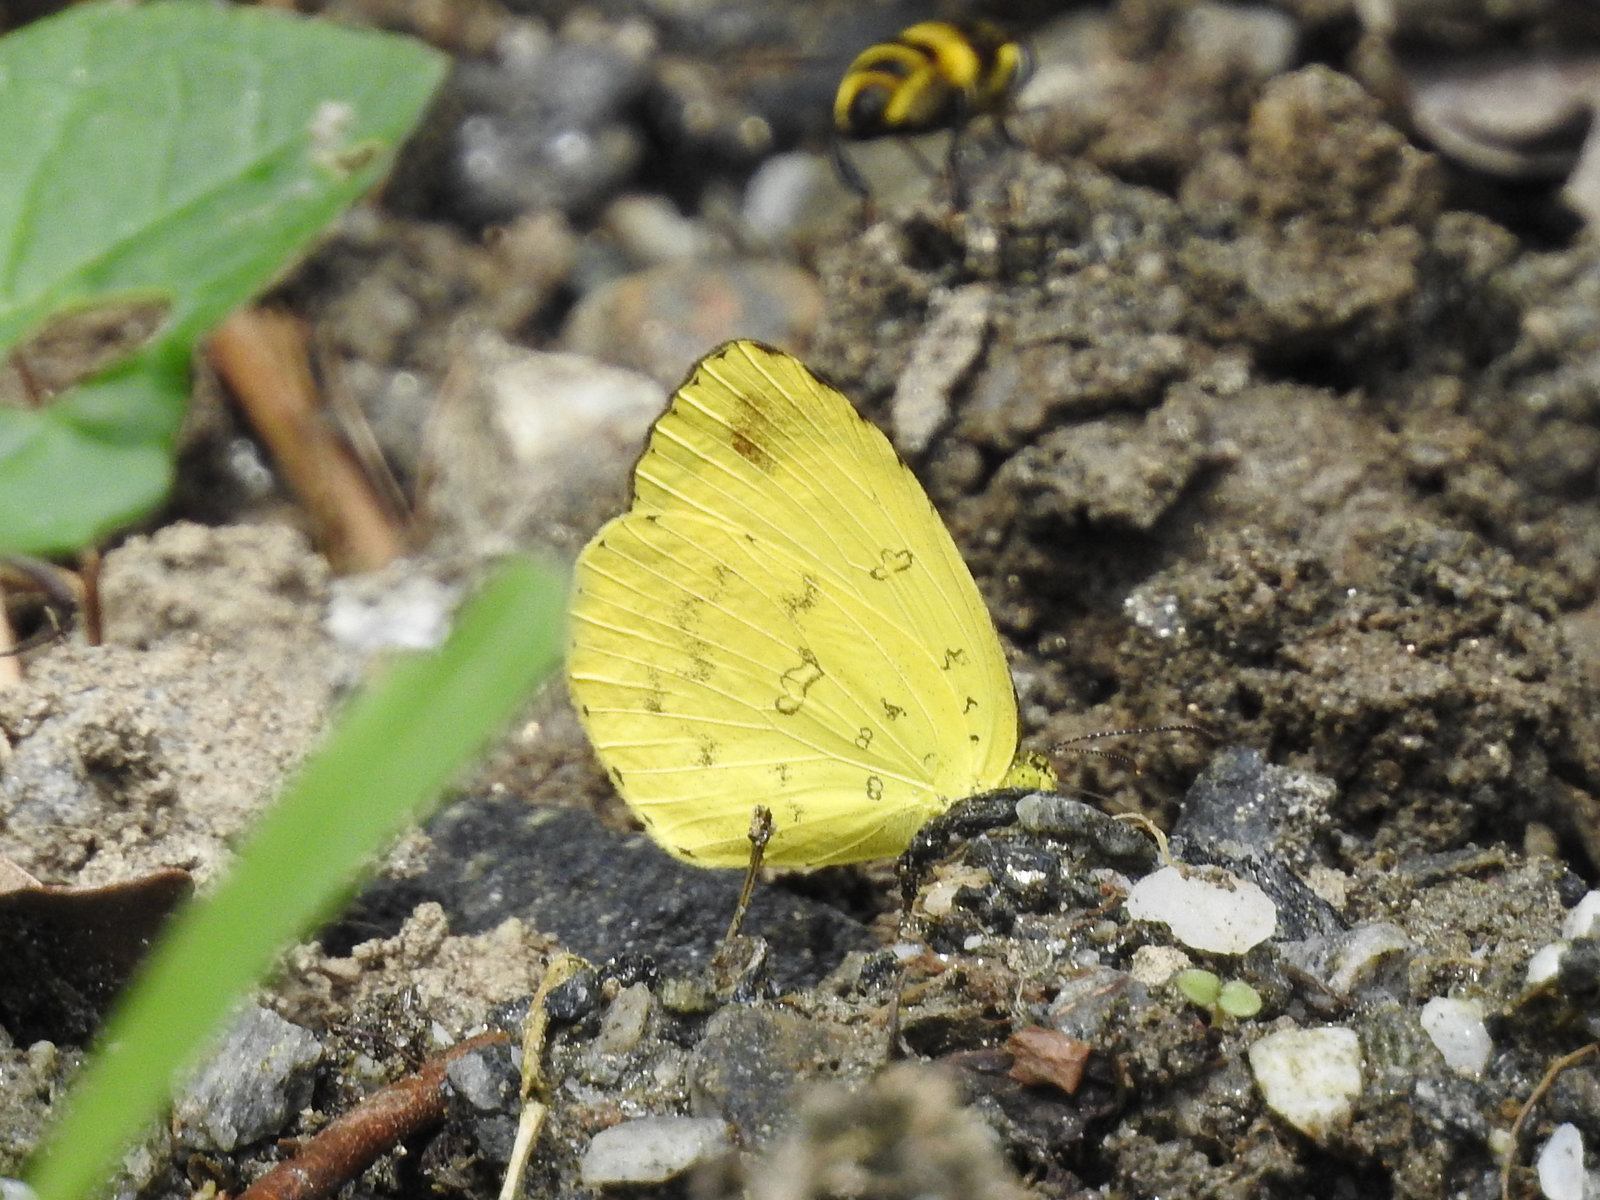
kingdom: Animalia
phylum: Arthropoda
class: Insecta
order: Lepidoptera
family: Pieridae
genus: Eurema
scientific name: Eurema blanda
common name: Three-spot grass yellow
